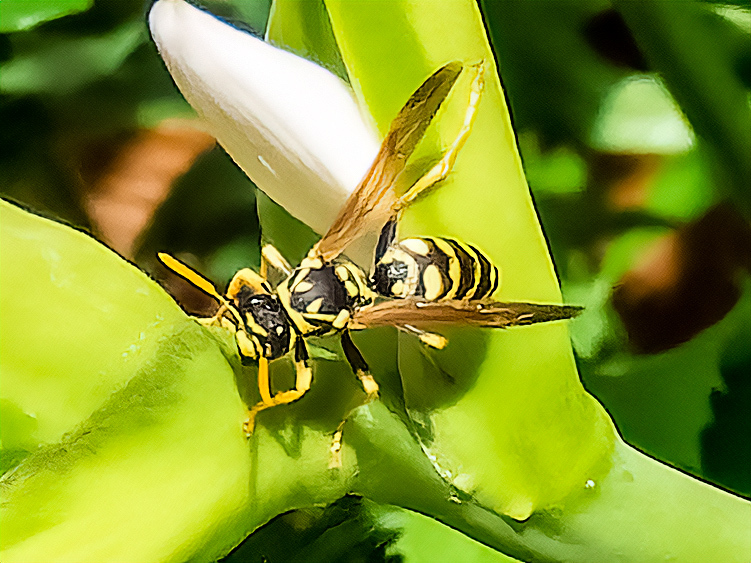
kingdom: Animalia
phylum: Arthropoda
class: Insecta
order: Hymenoptera
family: Eumenidae
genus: Polistes
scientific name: Polistes dominula
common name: Paper wasp
